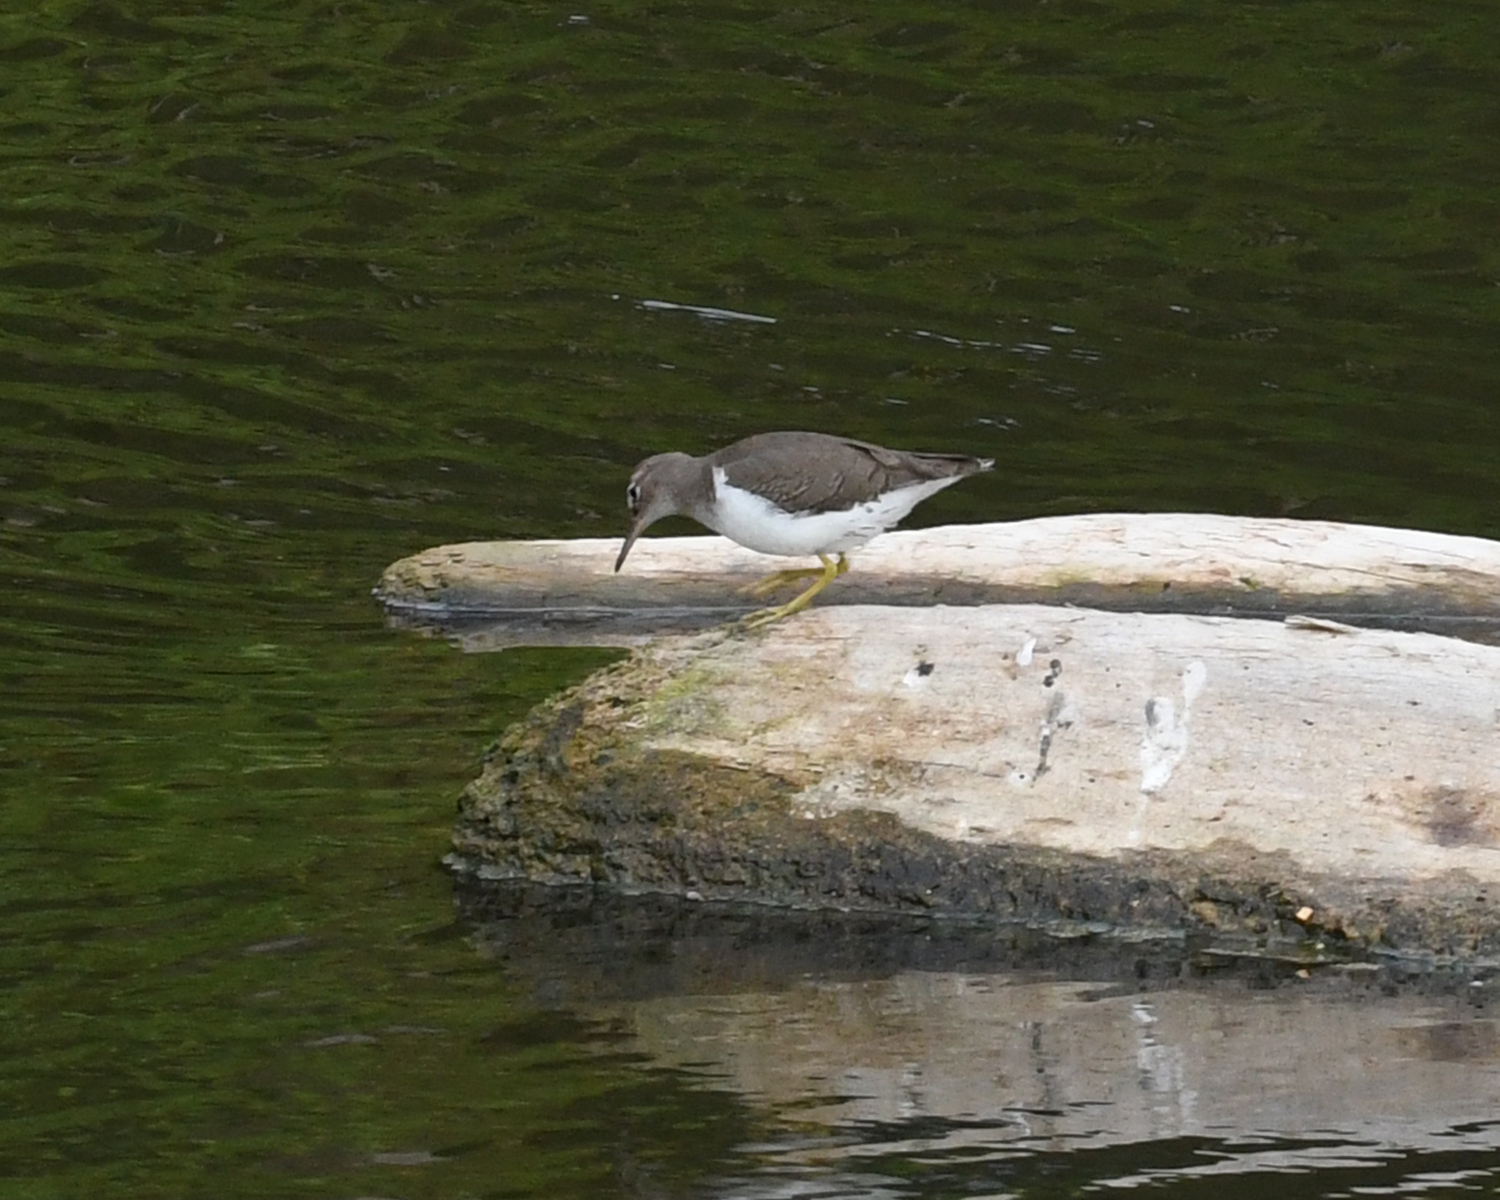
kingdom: Animalia
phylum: Chordata
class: Aves
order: Charadriiformes
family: Scolopacidae
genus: Actitis
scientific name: Actitis macularius
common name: Spotted sandpiper
